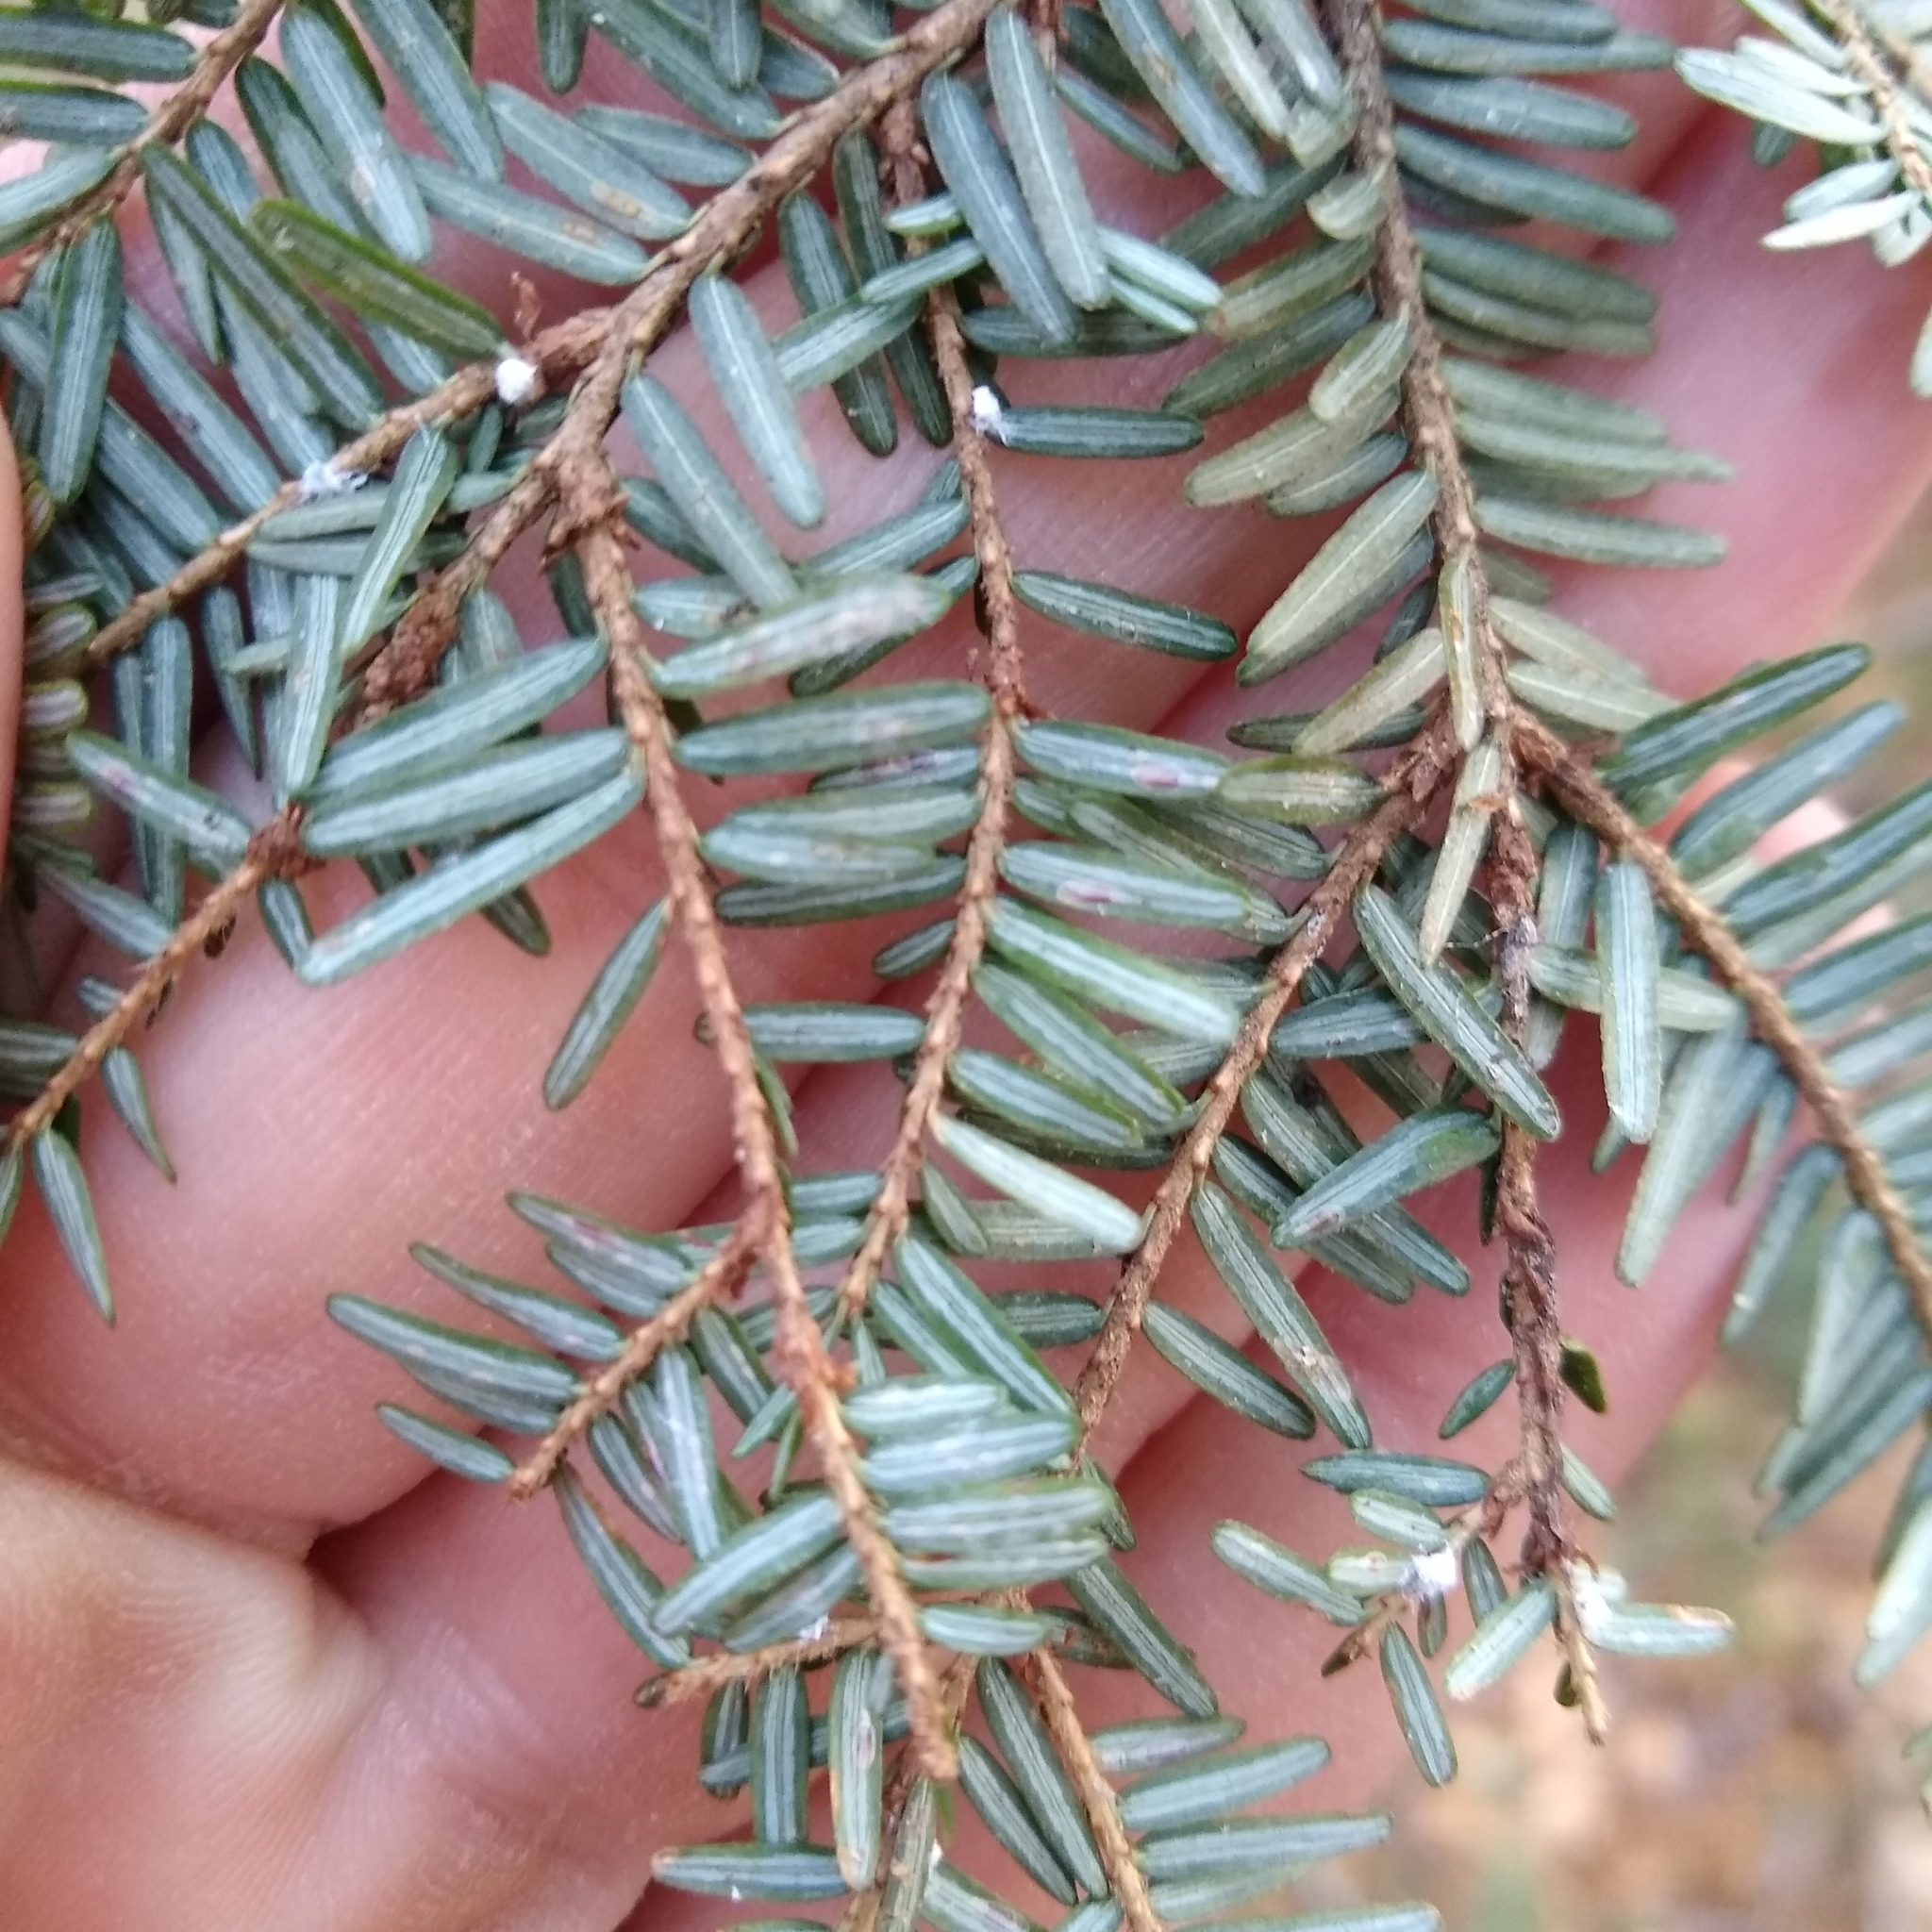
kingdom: Animalia
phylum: Arthropoda
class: Insecta
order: Hemiptera
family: Diaspididae
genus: Fiorinia
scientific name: Fiorinia externa
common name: Elongate hemlock scale
